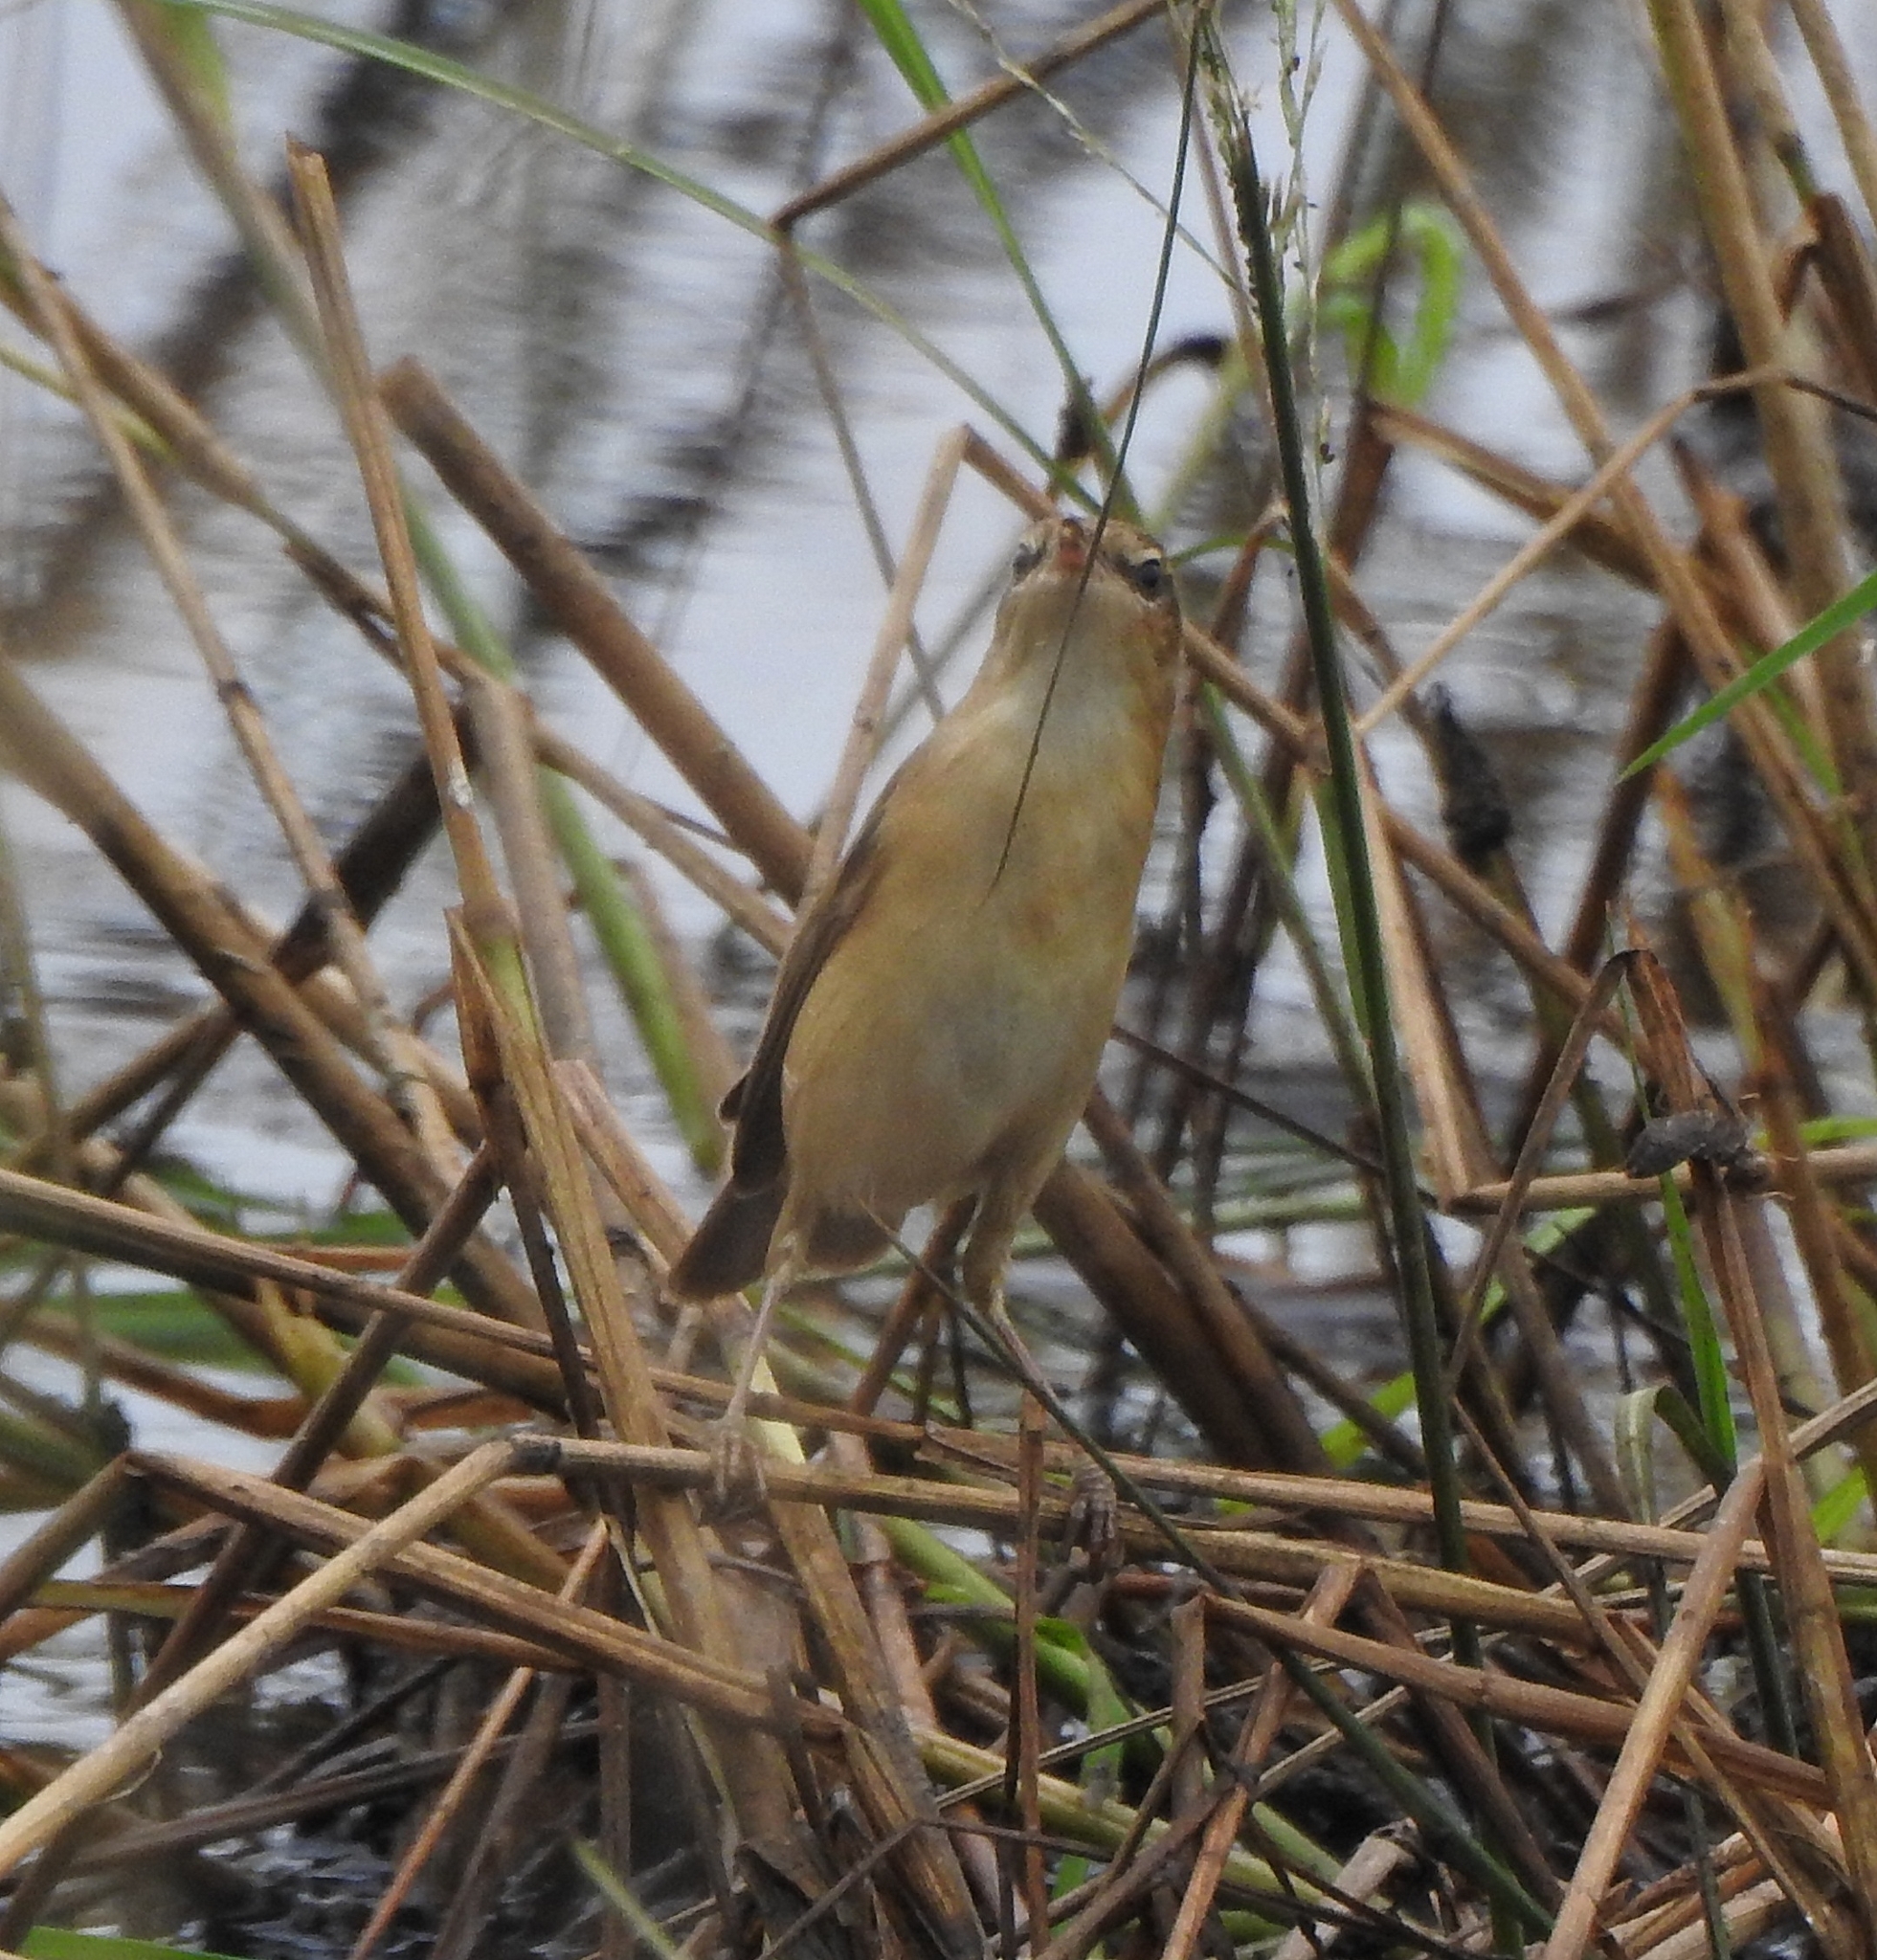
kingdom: Animalia
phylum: Chordata
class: Aves
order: Passeriformes
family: Acrocephalidae
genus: Acrocephalus
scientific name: Acrocephalus agricola
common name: Paddyfield warbler
